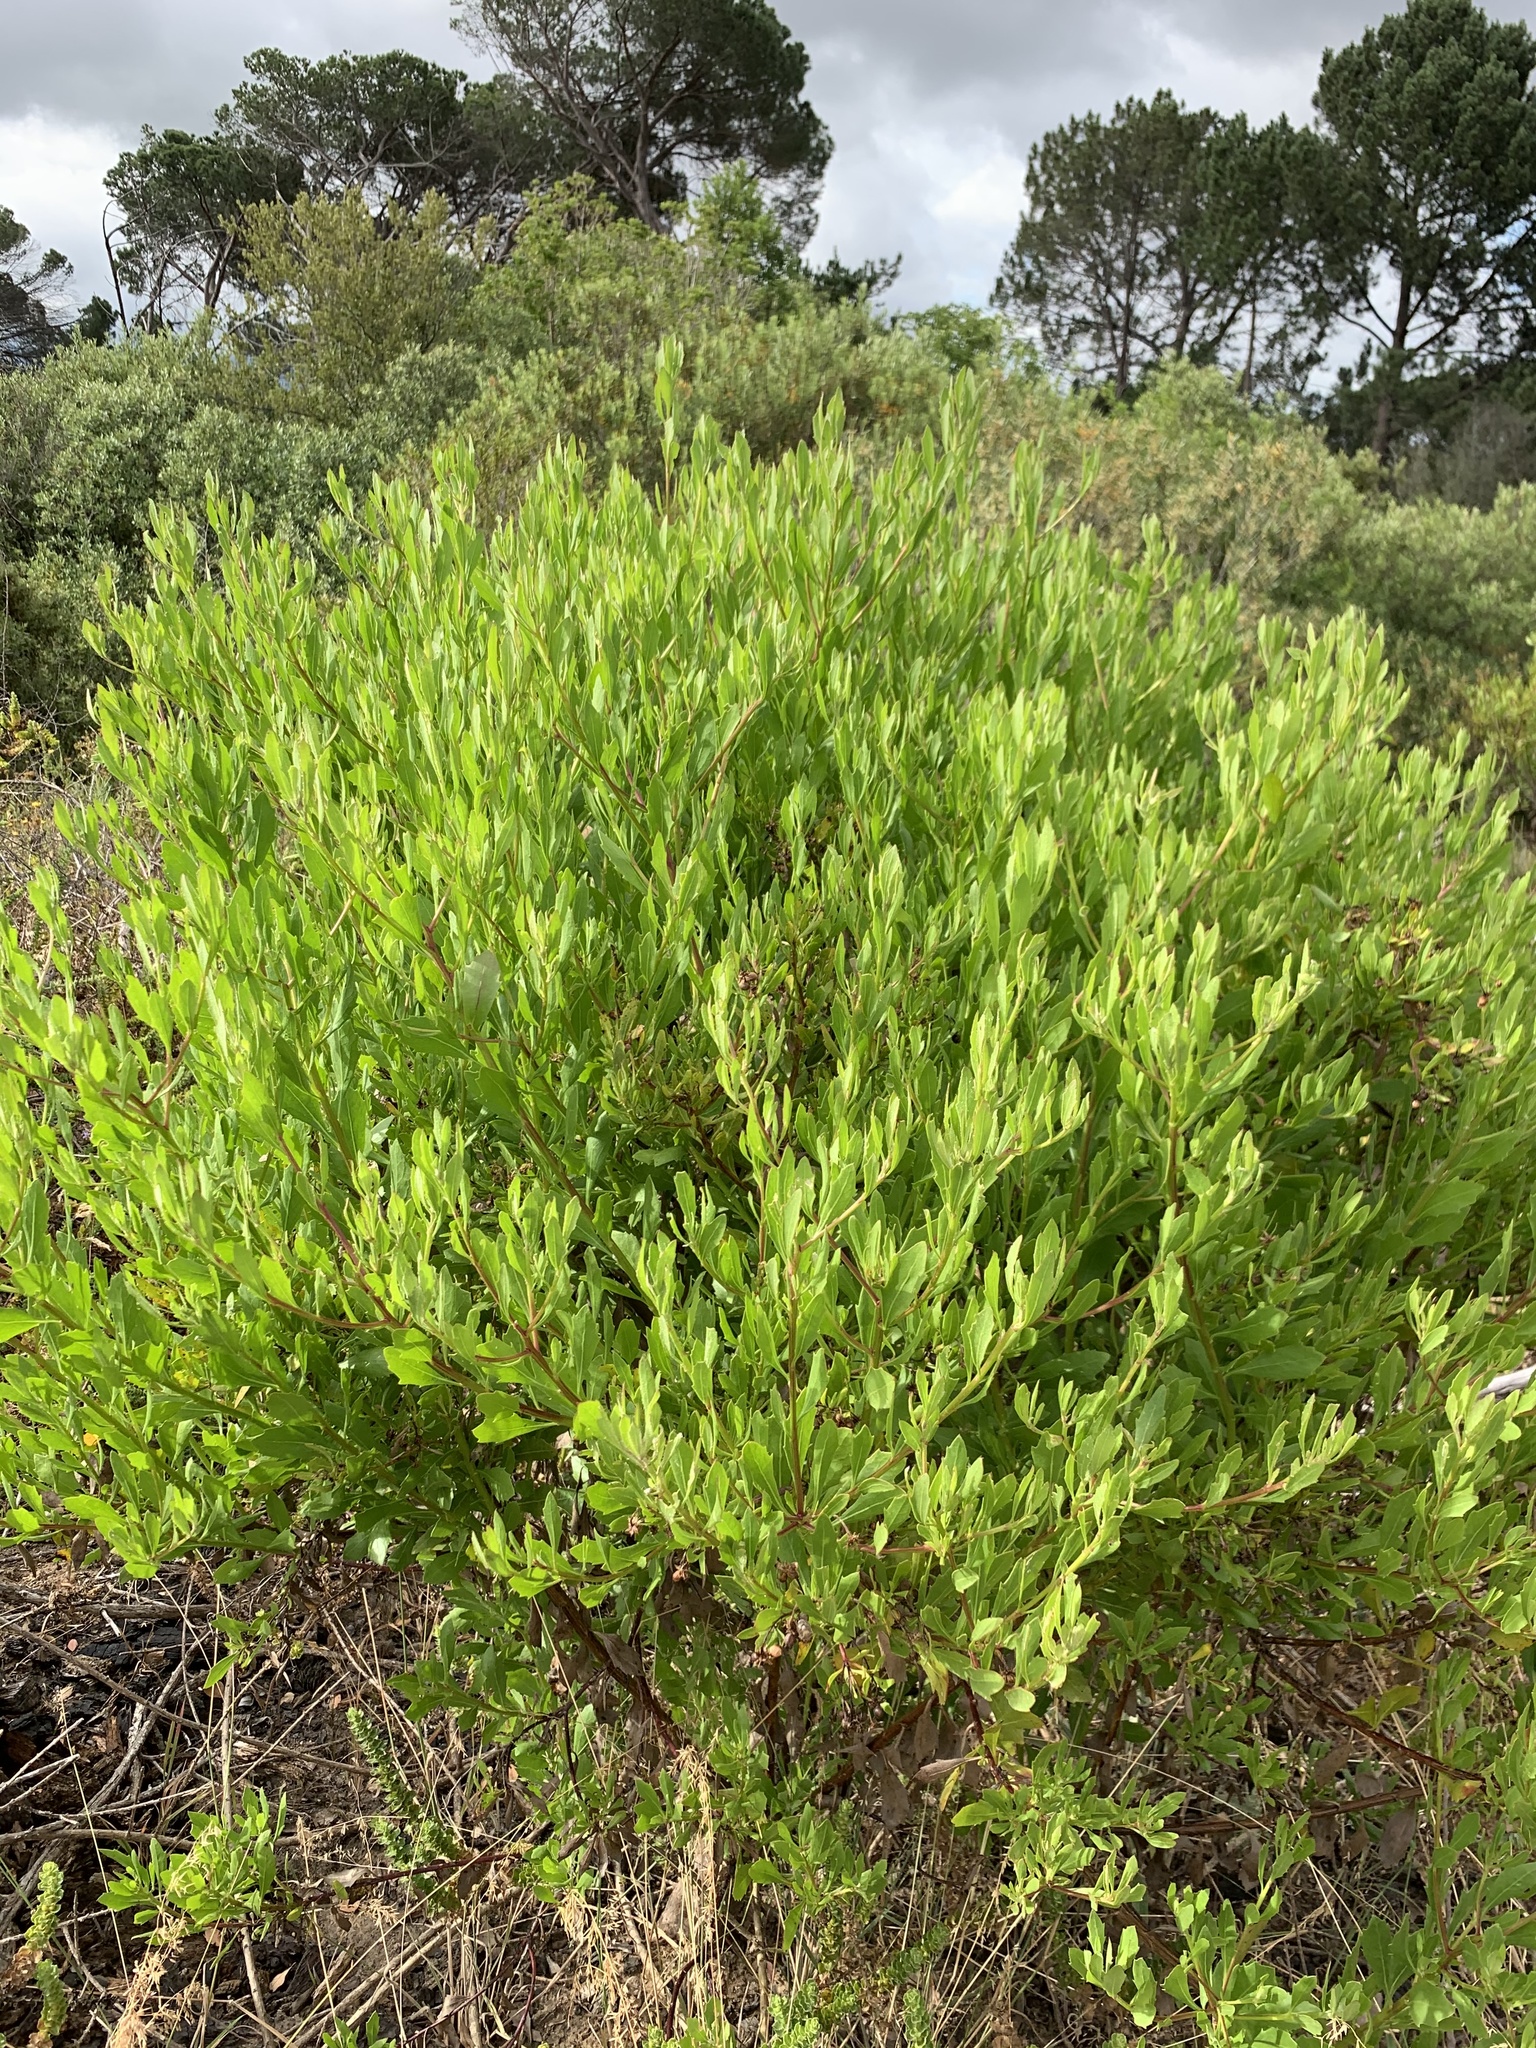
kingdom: Plantae
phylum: Tracheophyta
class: Magnoliopsida
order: Asterales
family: Asteraceae
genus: Osteospermum
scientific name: Osteospermum moniliferum
